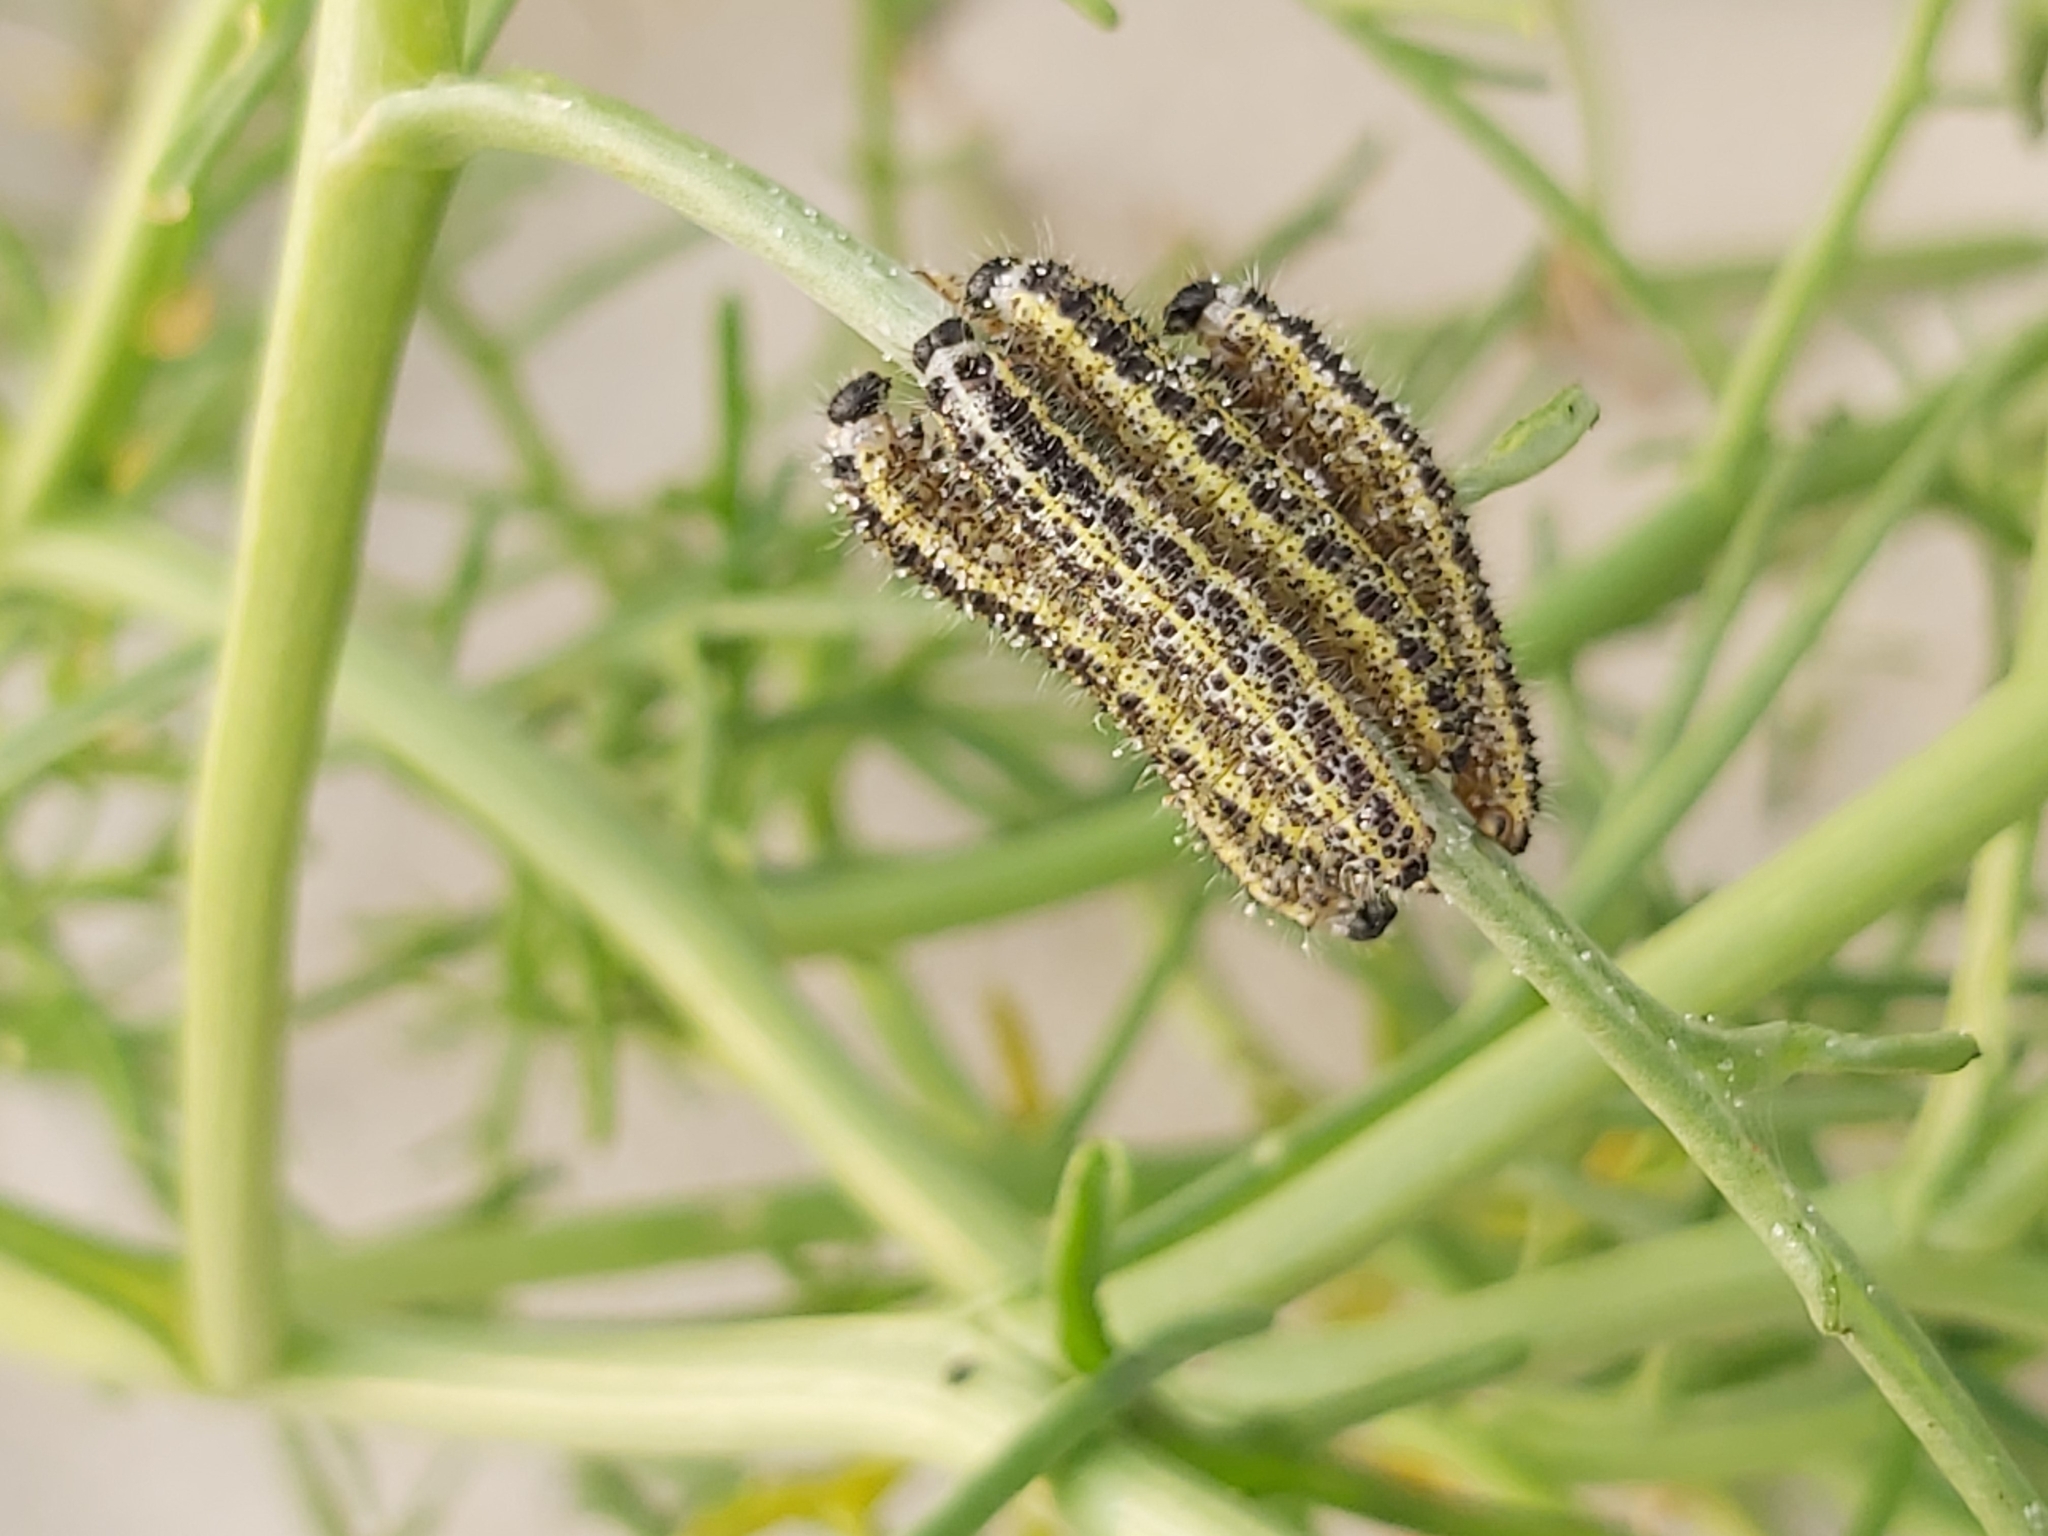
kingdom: Animalia
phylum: Arthropoda
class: Insecta
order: Lepidoptera
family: Pieridae
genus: Pieris
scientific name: Pieris brassicae
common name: Large white
